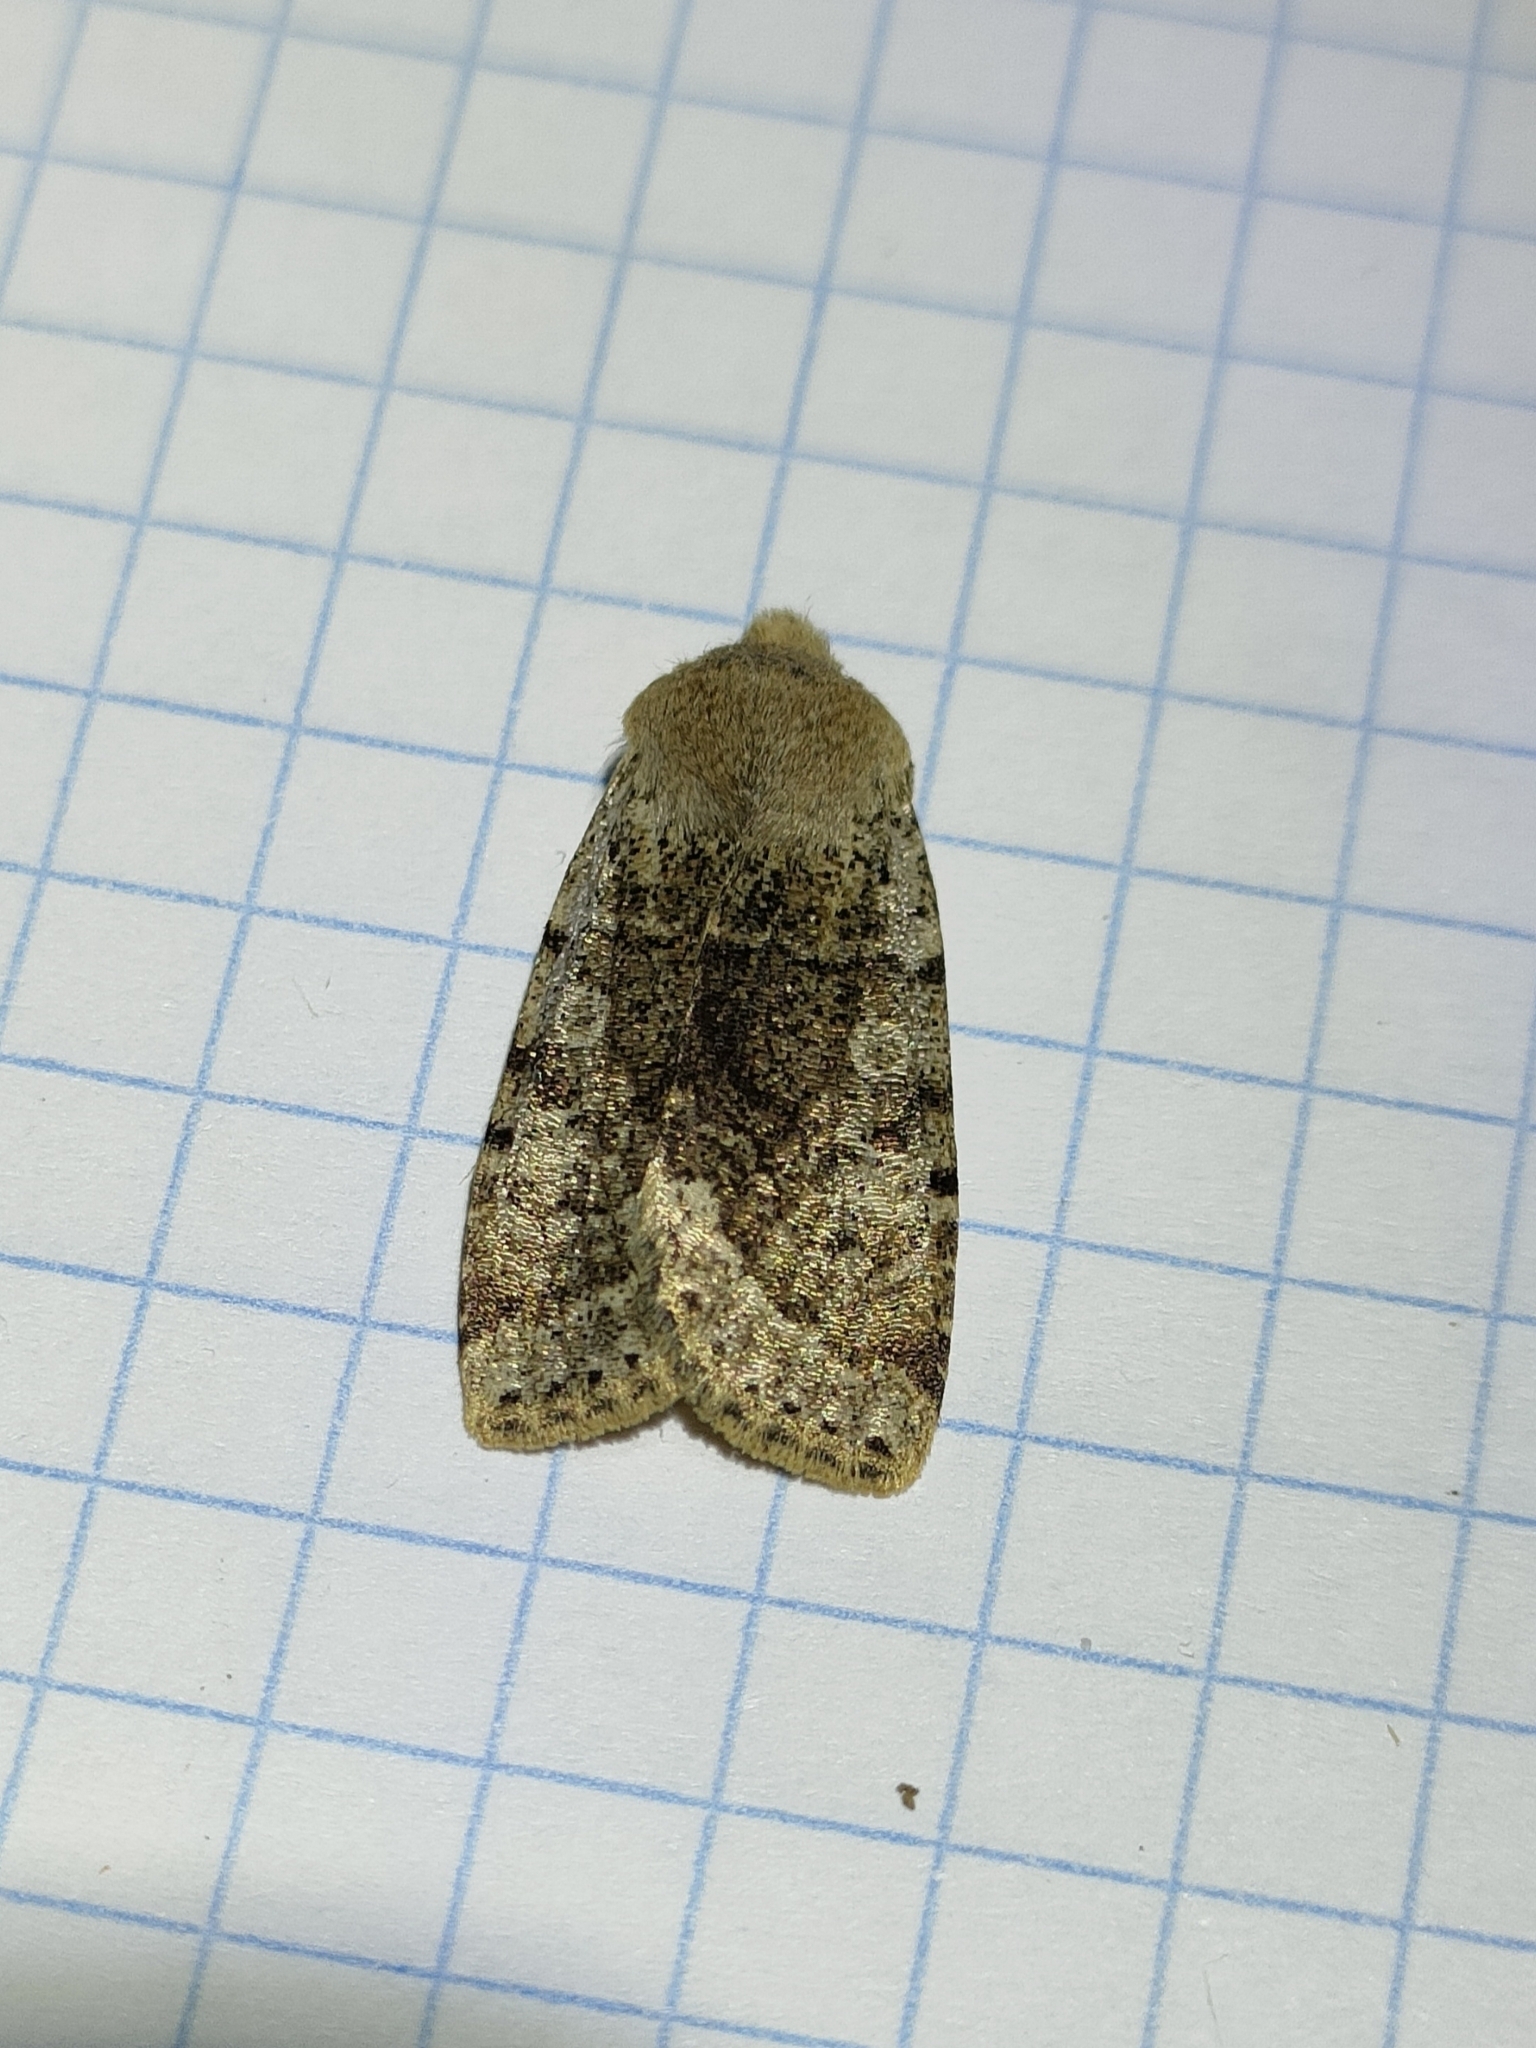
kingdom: Animalia
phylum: Arthropoda
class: Insecta
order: Lepidoptera
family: Noctuidae
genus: Conistra
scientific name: Conistra daubei
